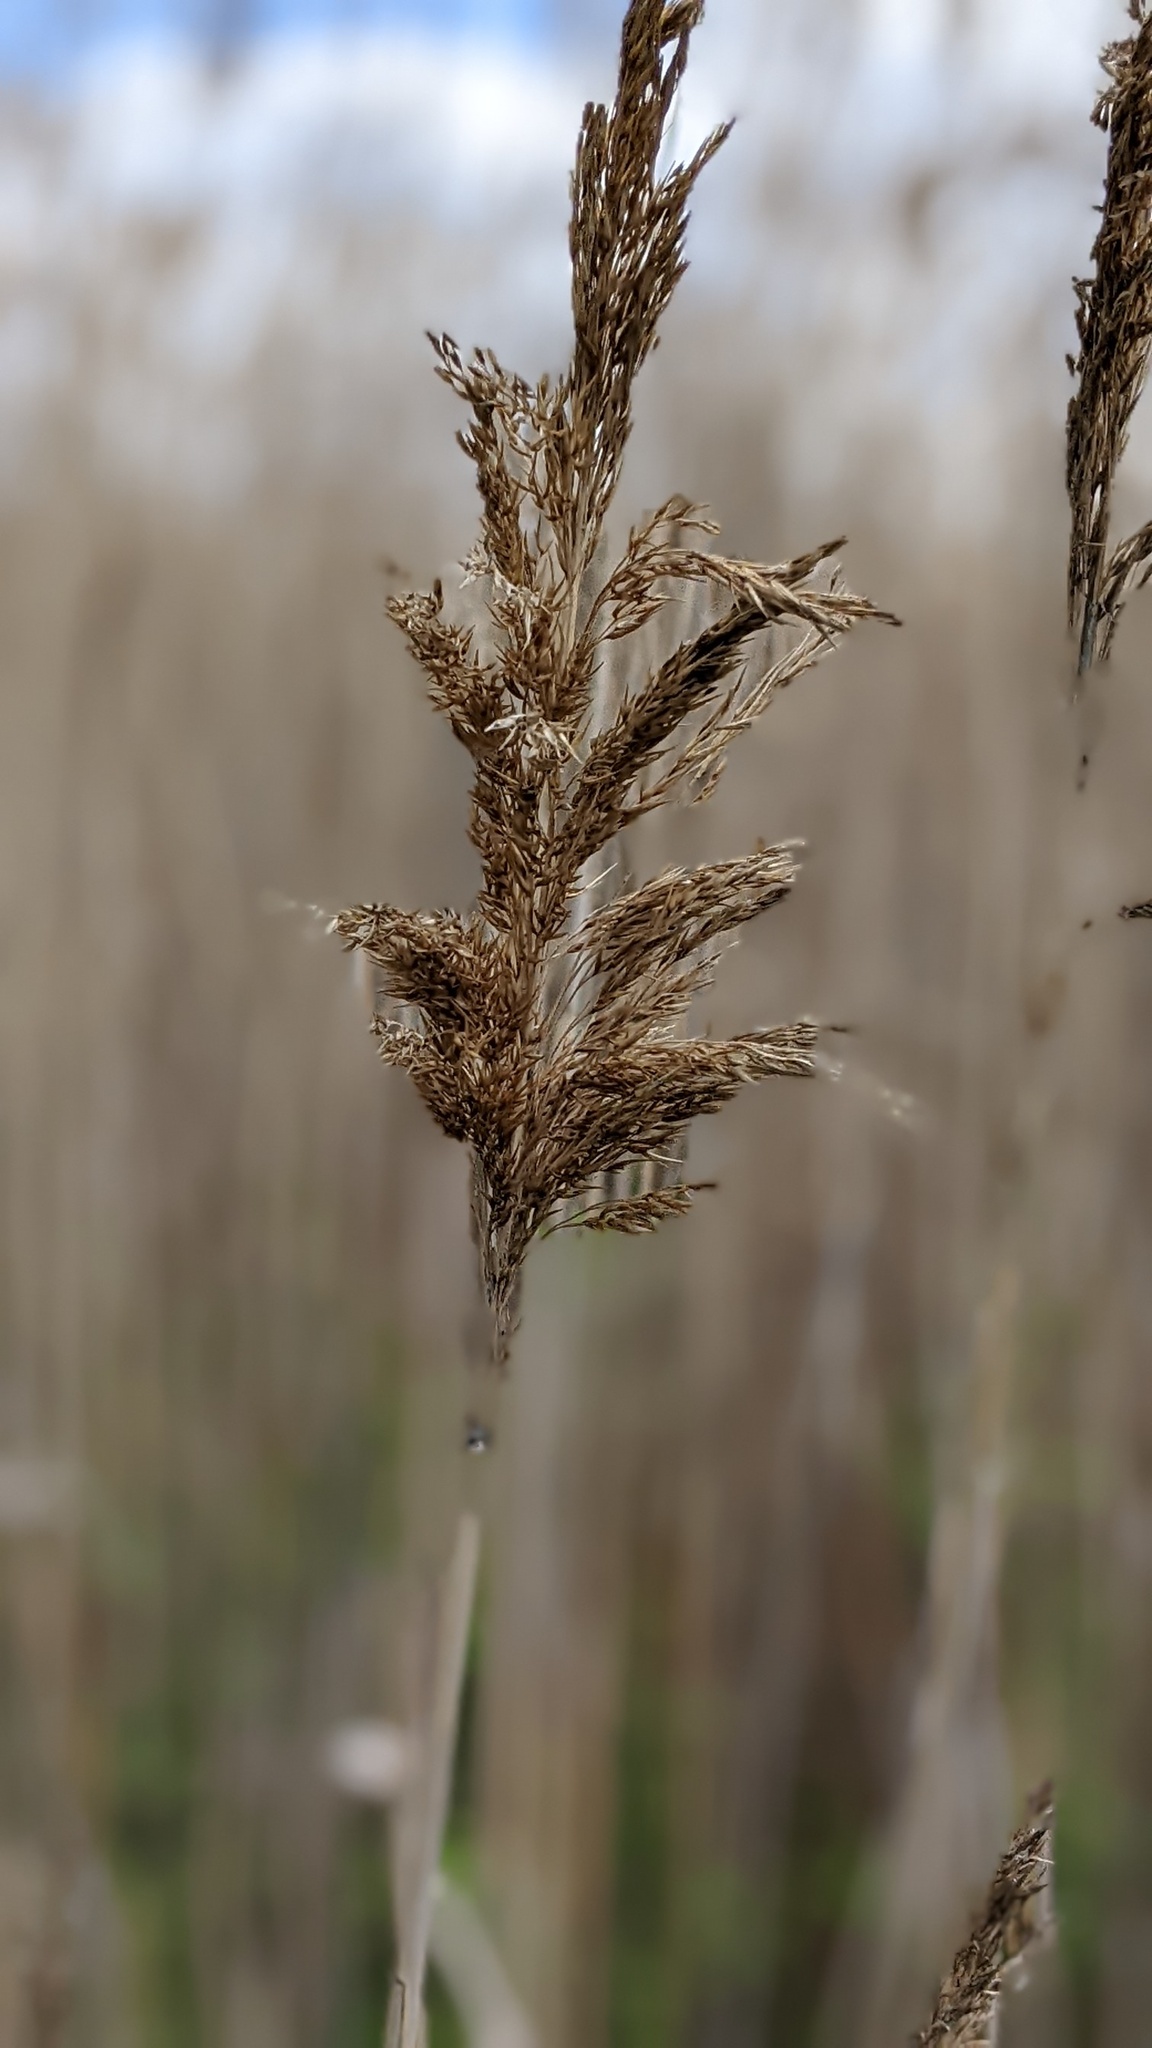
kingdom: Plantae
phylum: Tracheophyta
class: Liliopsida
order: Poales
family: Poaceae
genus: Phragmites
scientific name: Phragmites australis
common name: Common reed
